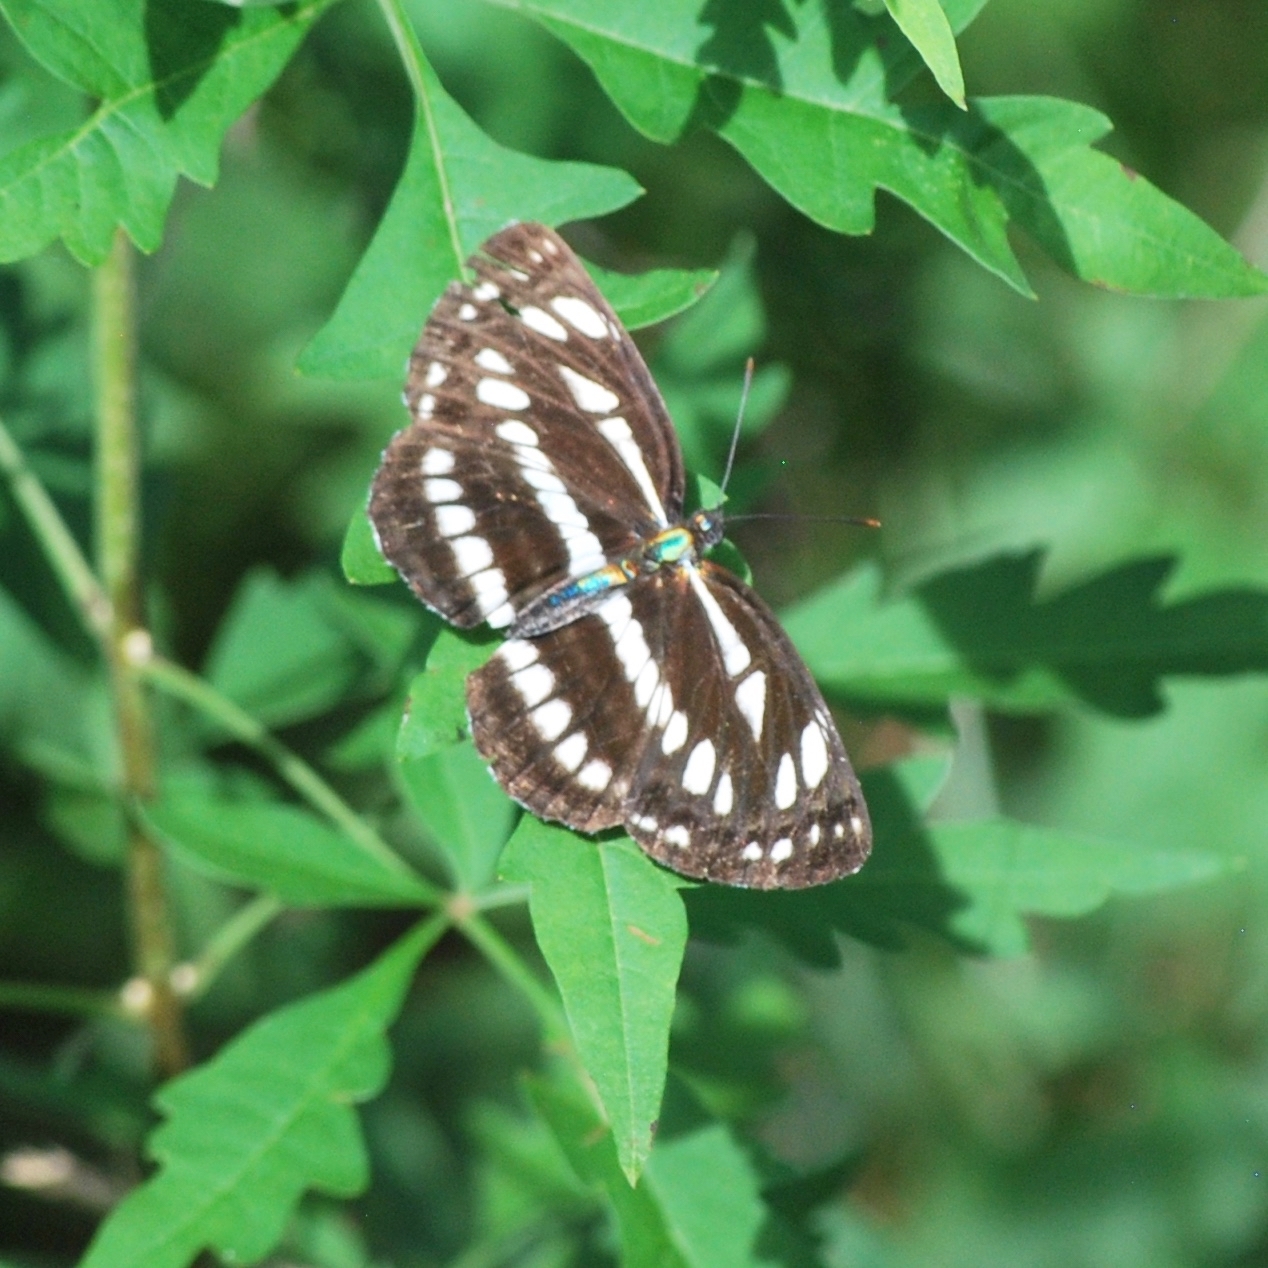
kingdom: Animalia
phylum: Arthropoda
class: Insecta
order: Lepidoptera
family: Nymphalidae
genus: Neptis
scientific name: Neptis sappho
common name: Common glider
